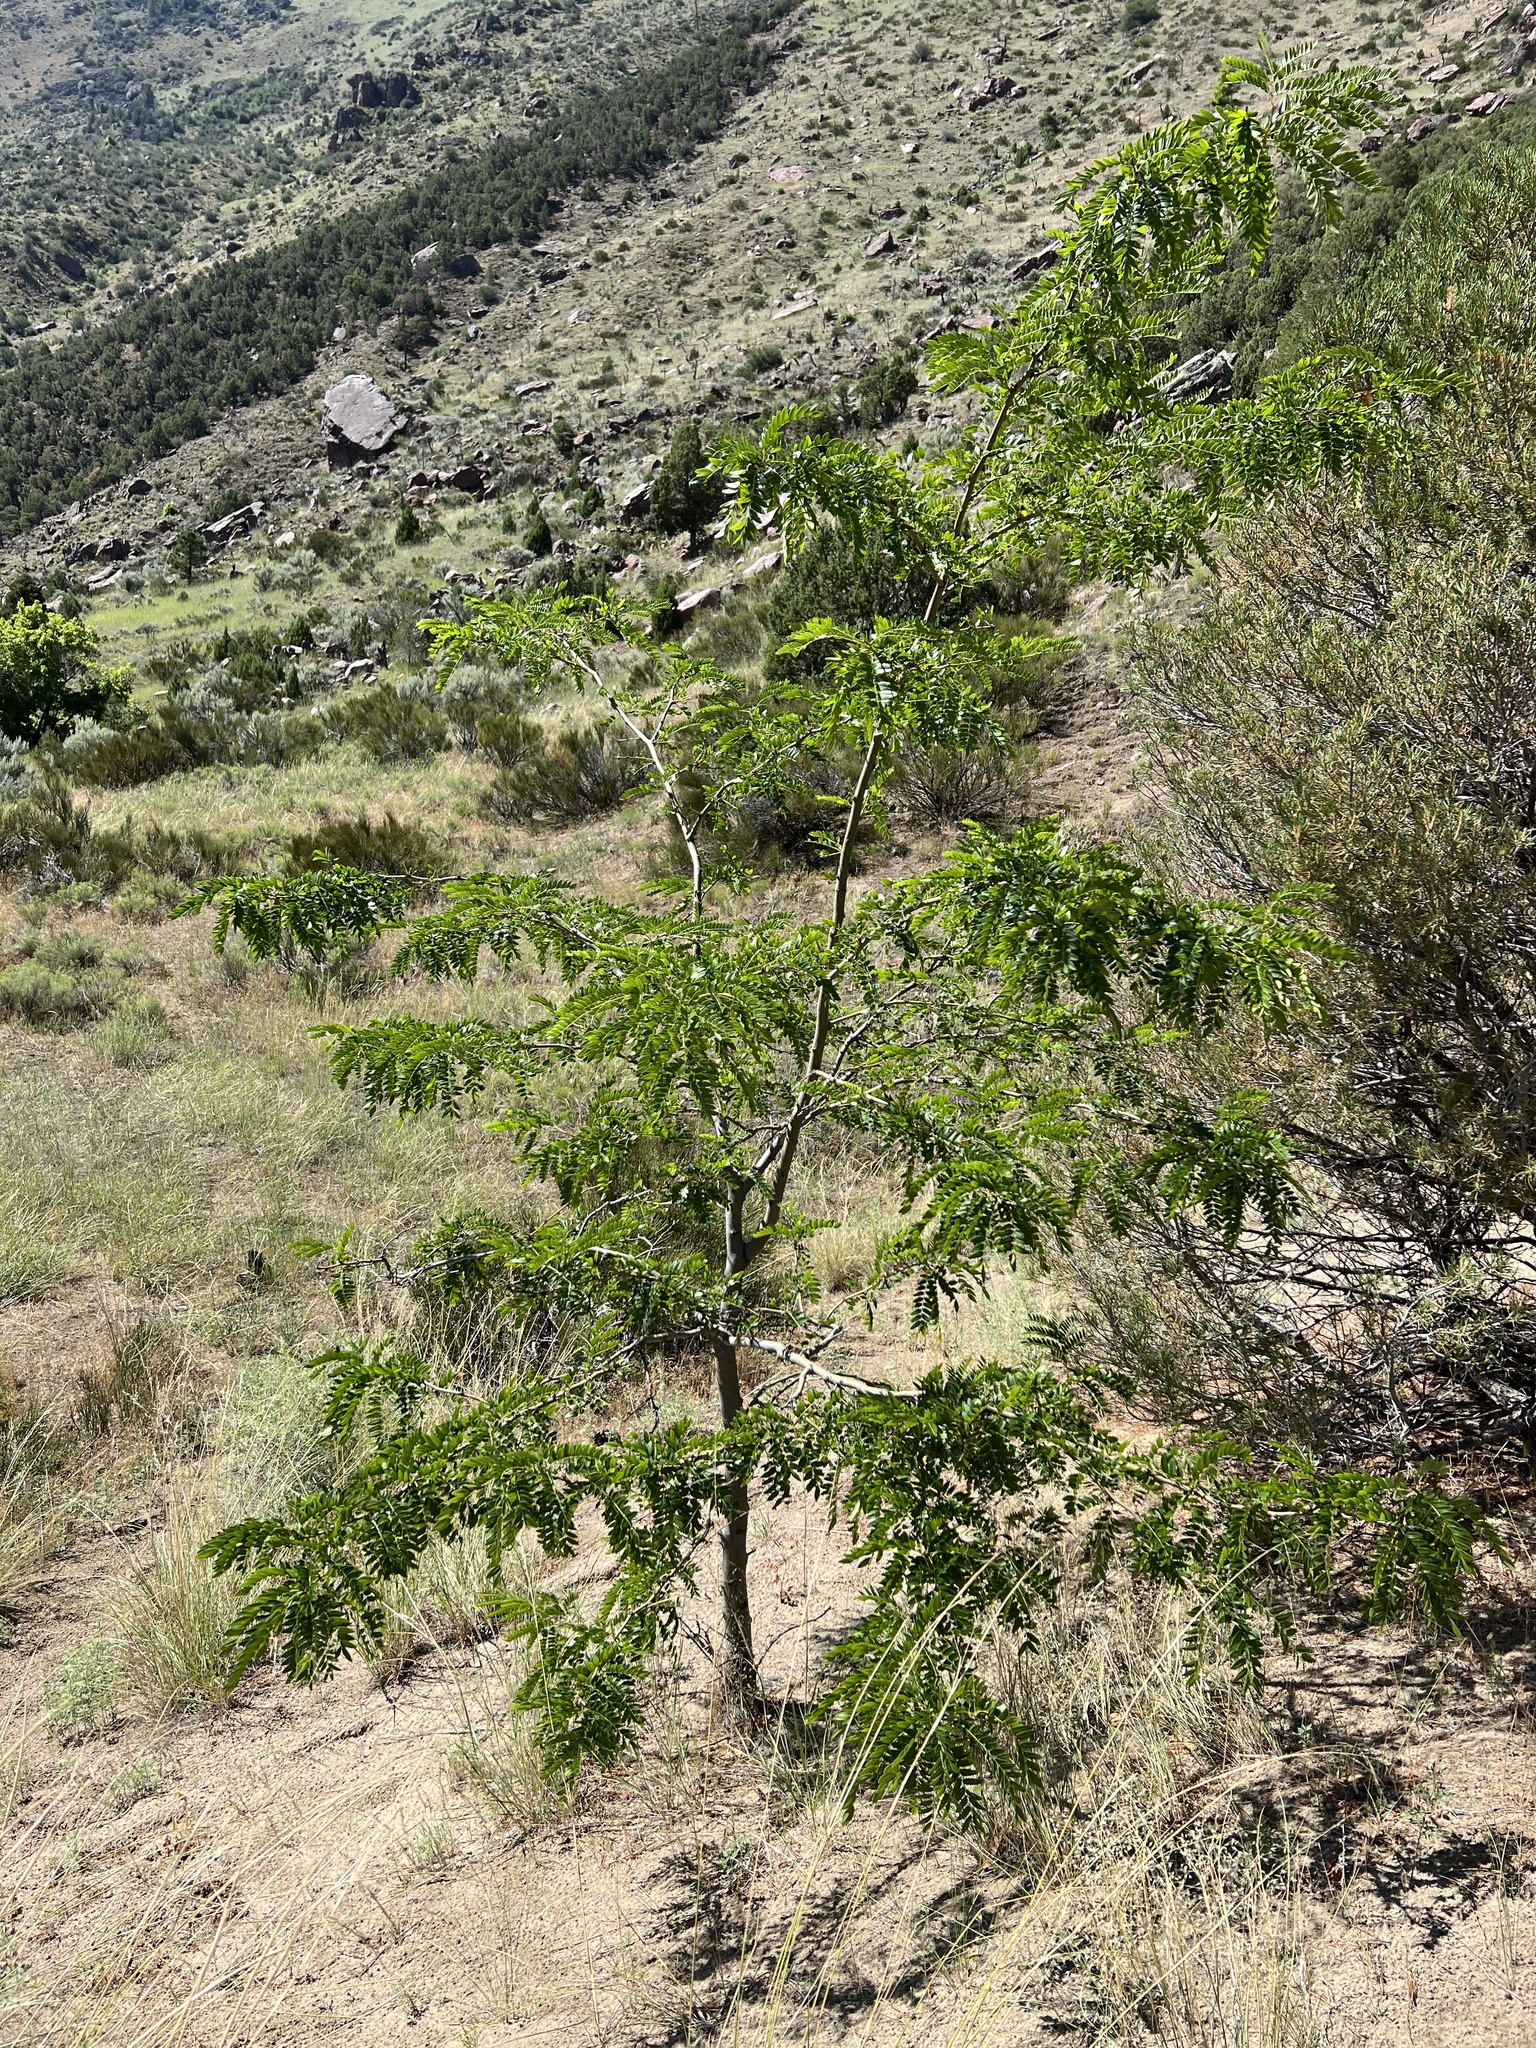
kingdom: Plantae
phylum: Tracheophyta
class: Magnoliopsida
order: Fabales
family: Fabaceae
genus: Gleditsia
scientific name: Gleditsia triacanthos
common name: Common honeylocust
